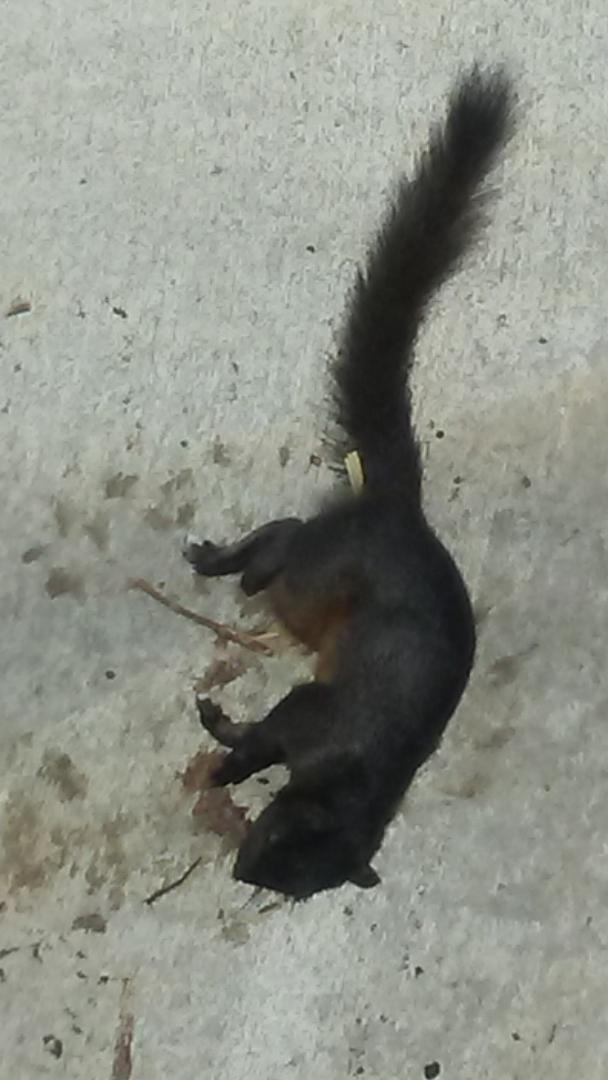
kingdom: Animalia
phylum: Chordata
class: Mammalia
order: Rodentia
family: Sciuridae
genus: Sciurus
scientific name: Sciurus carolinensis
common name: Eastern gray squirrel
